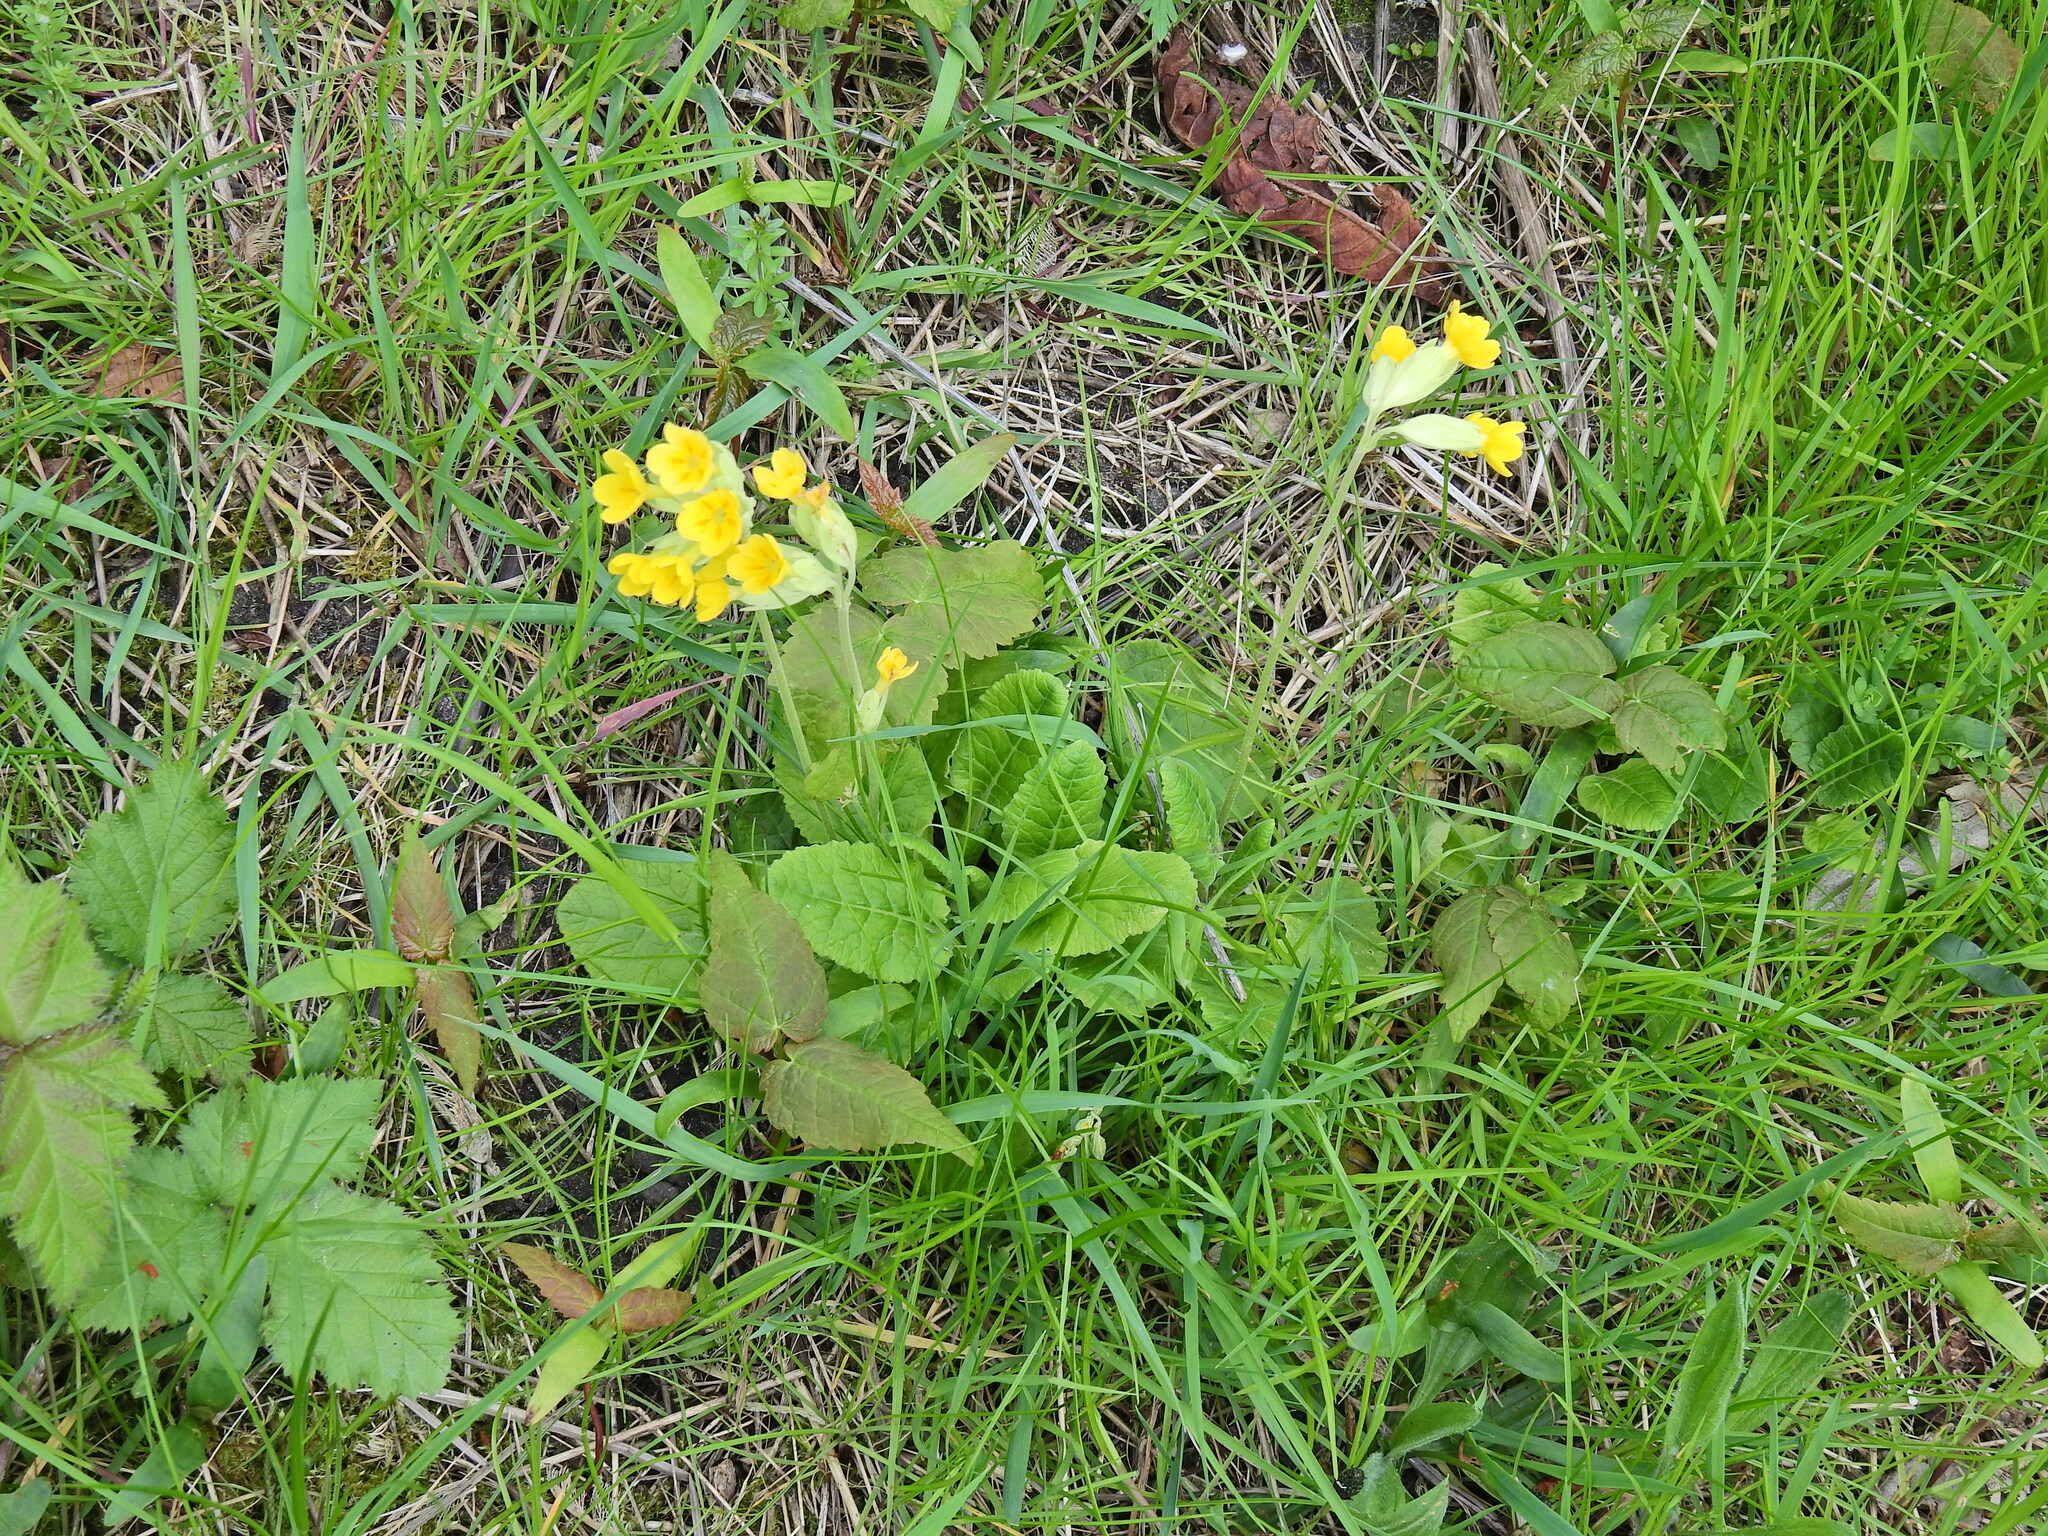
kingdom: Plantae
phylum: Tracheophyta
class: Magnoliopsida
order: Ericales
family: Primulaceae
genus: Primula
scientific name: Primula veris
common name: Cowslip
